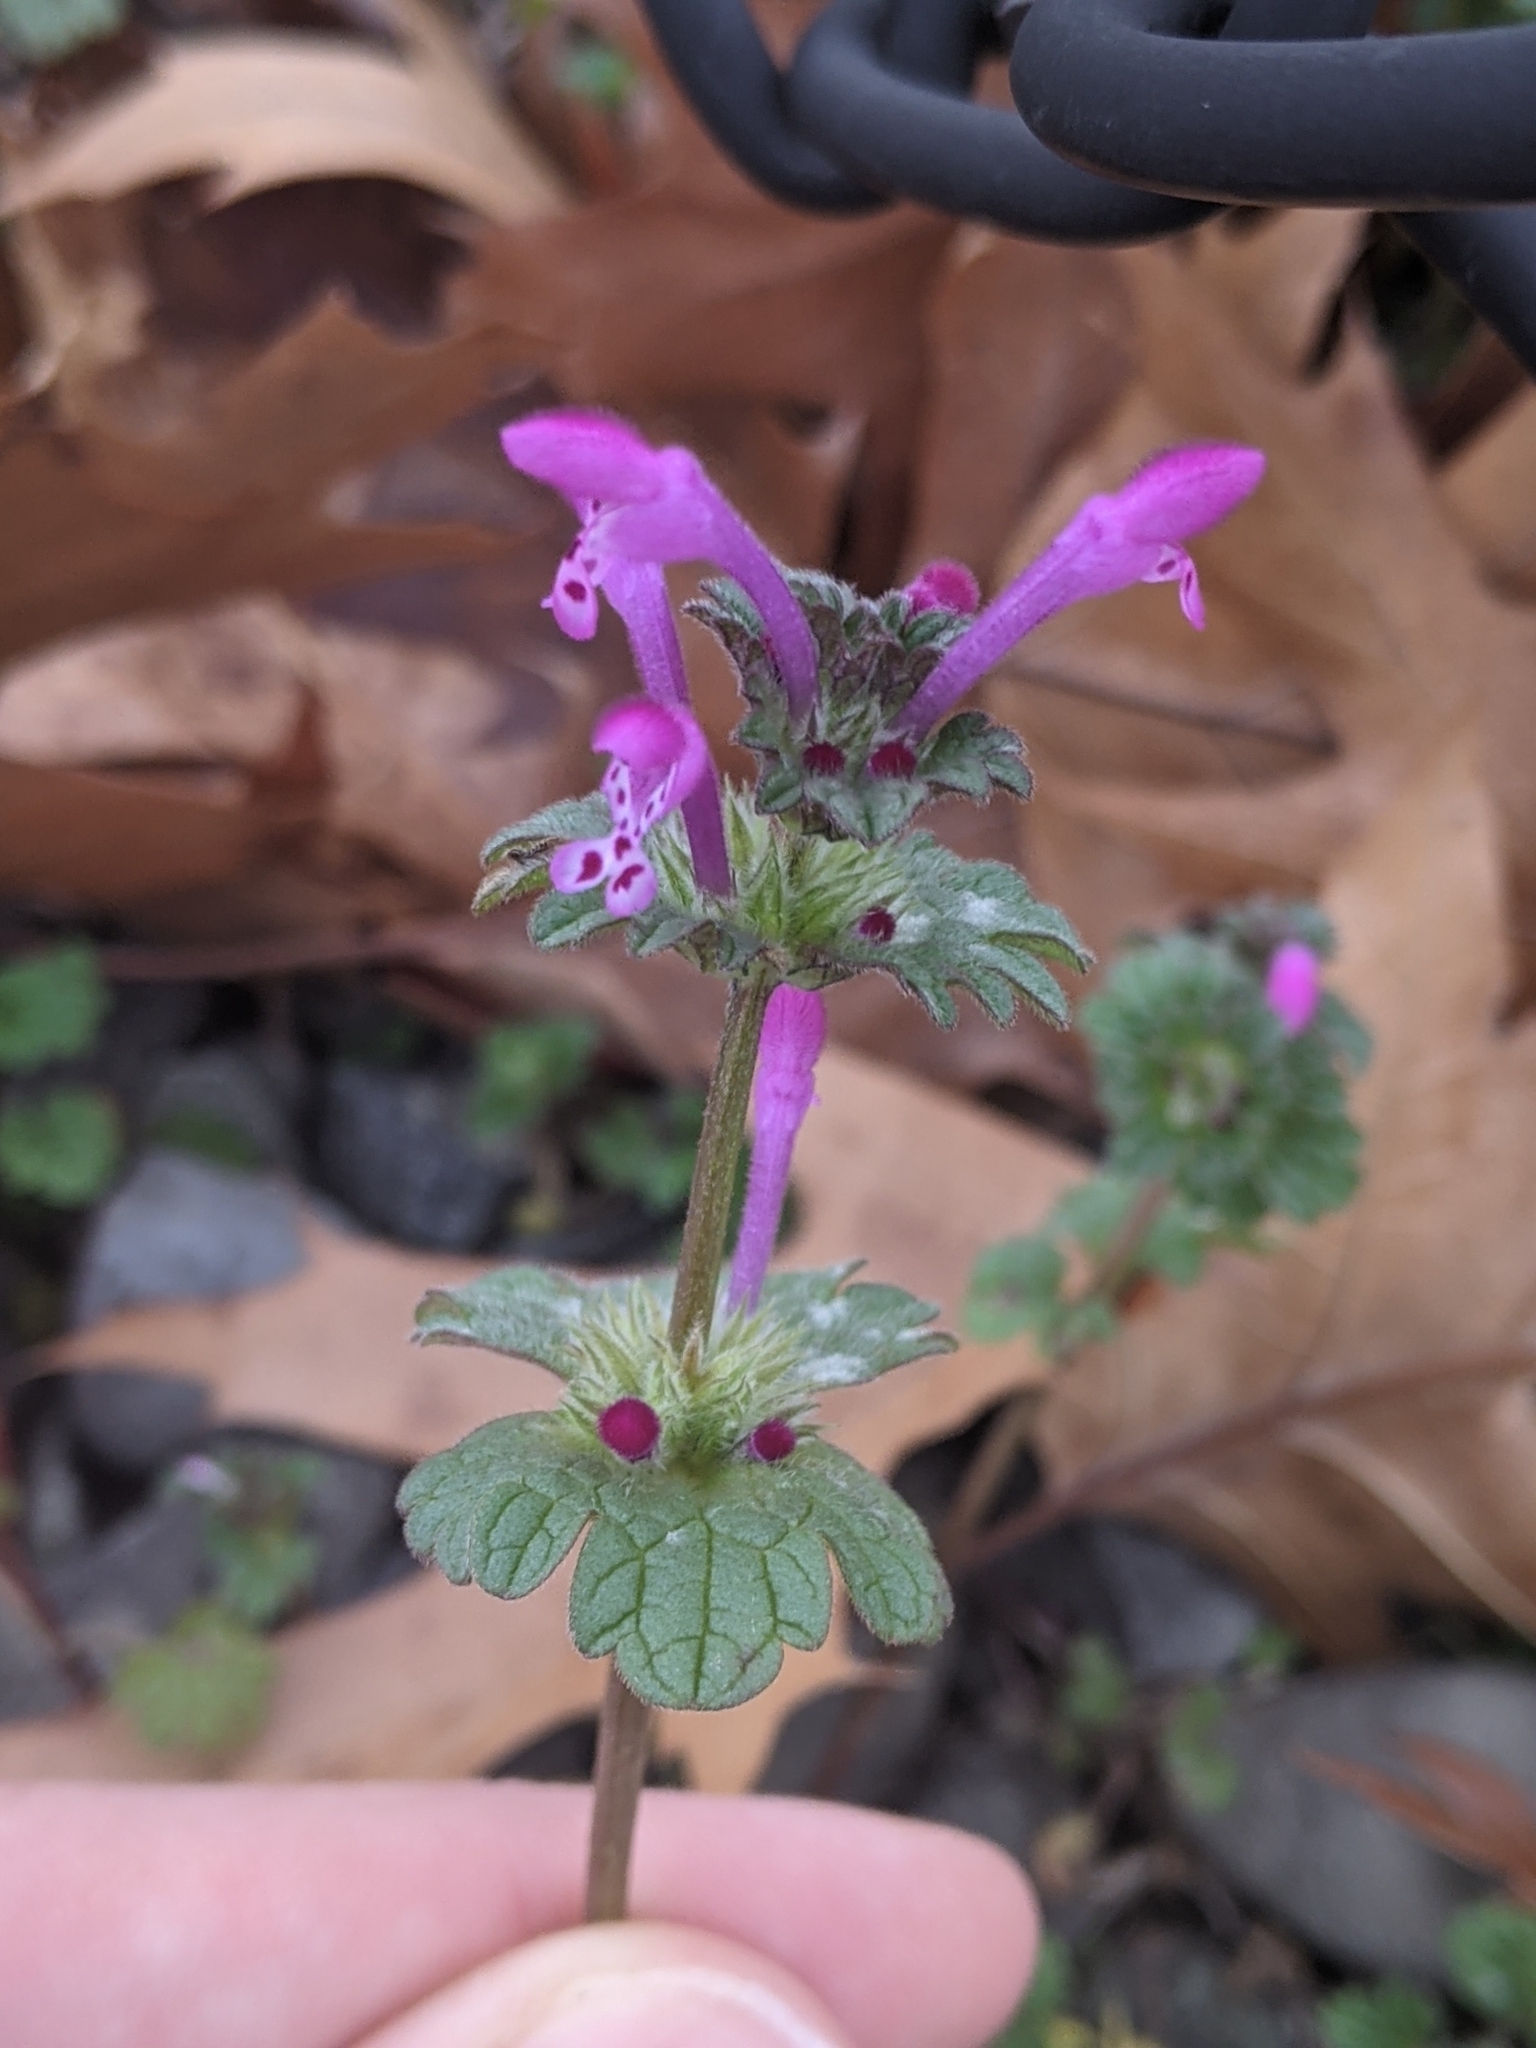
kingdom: Plantae
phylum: Tracheophyta
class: Magnoliopsida
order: Lamiales
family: Lamiaceae
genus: Lamium
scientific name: Lamium amplexicaule
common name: Henbit dead-nettle
